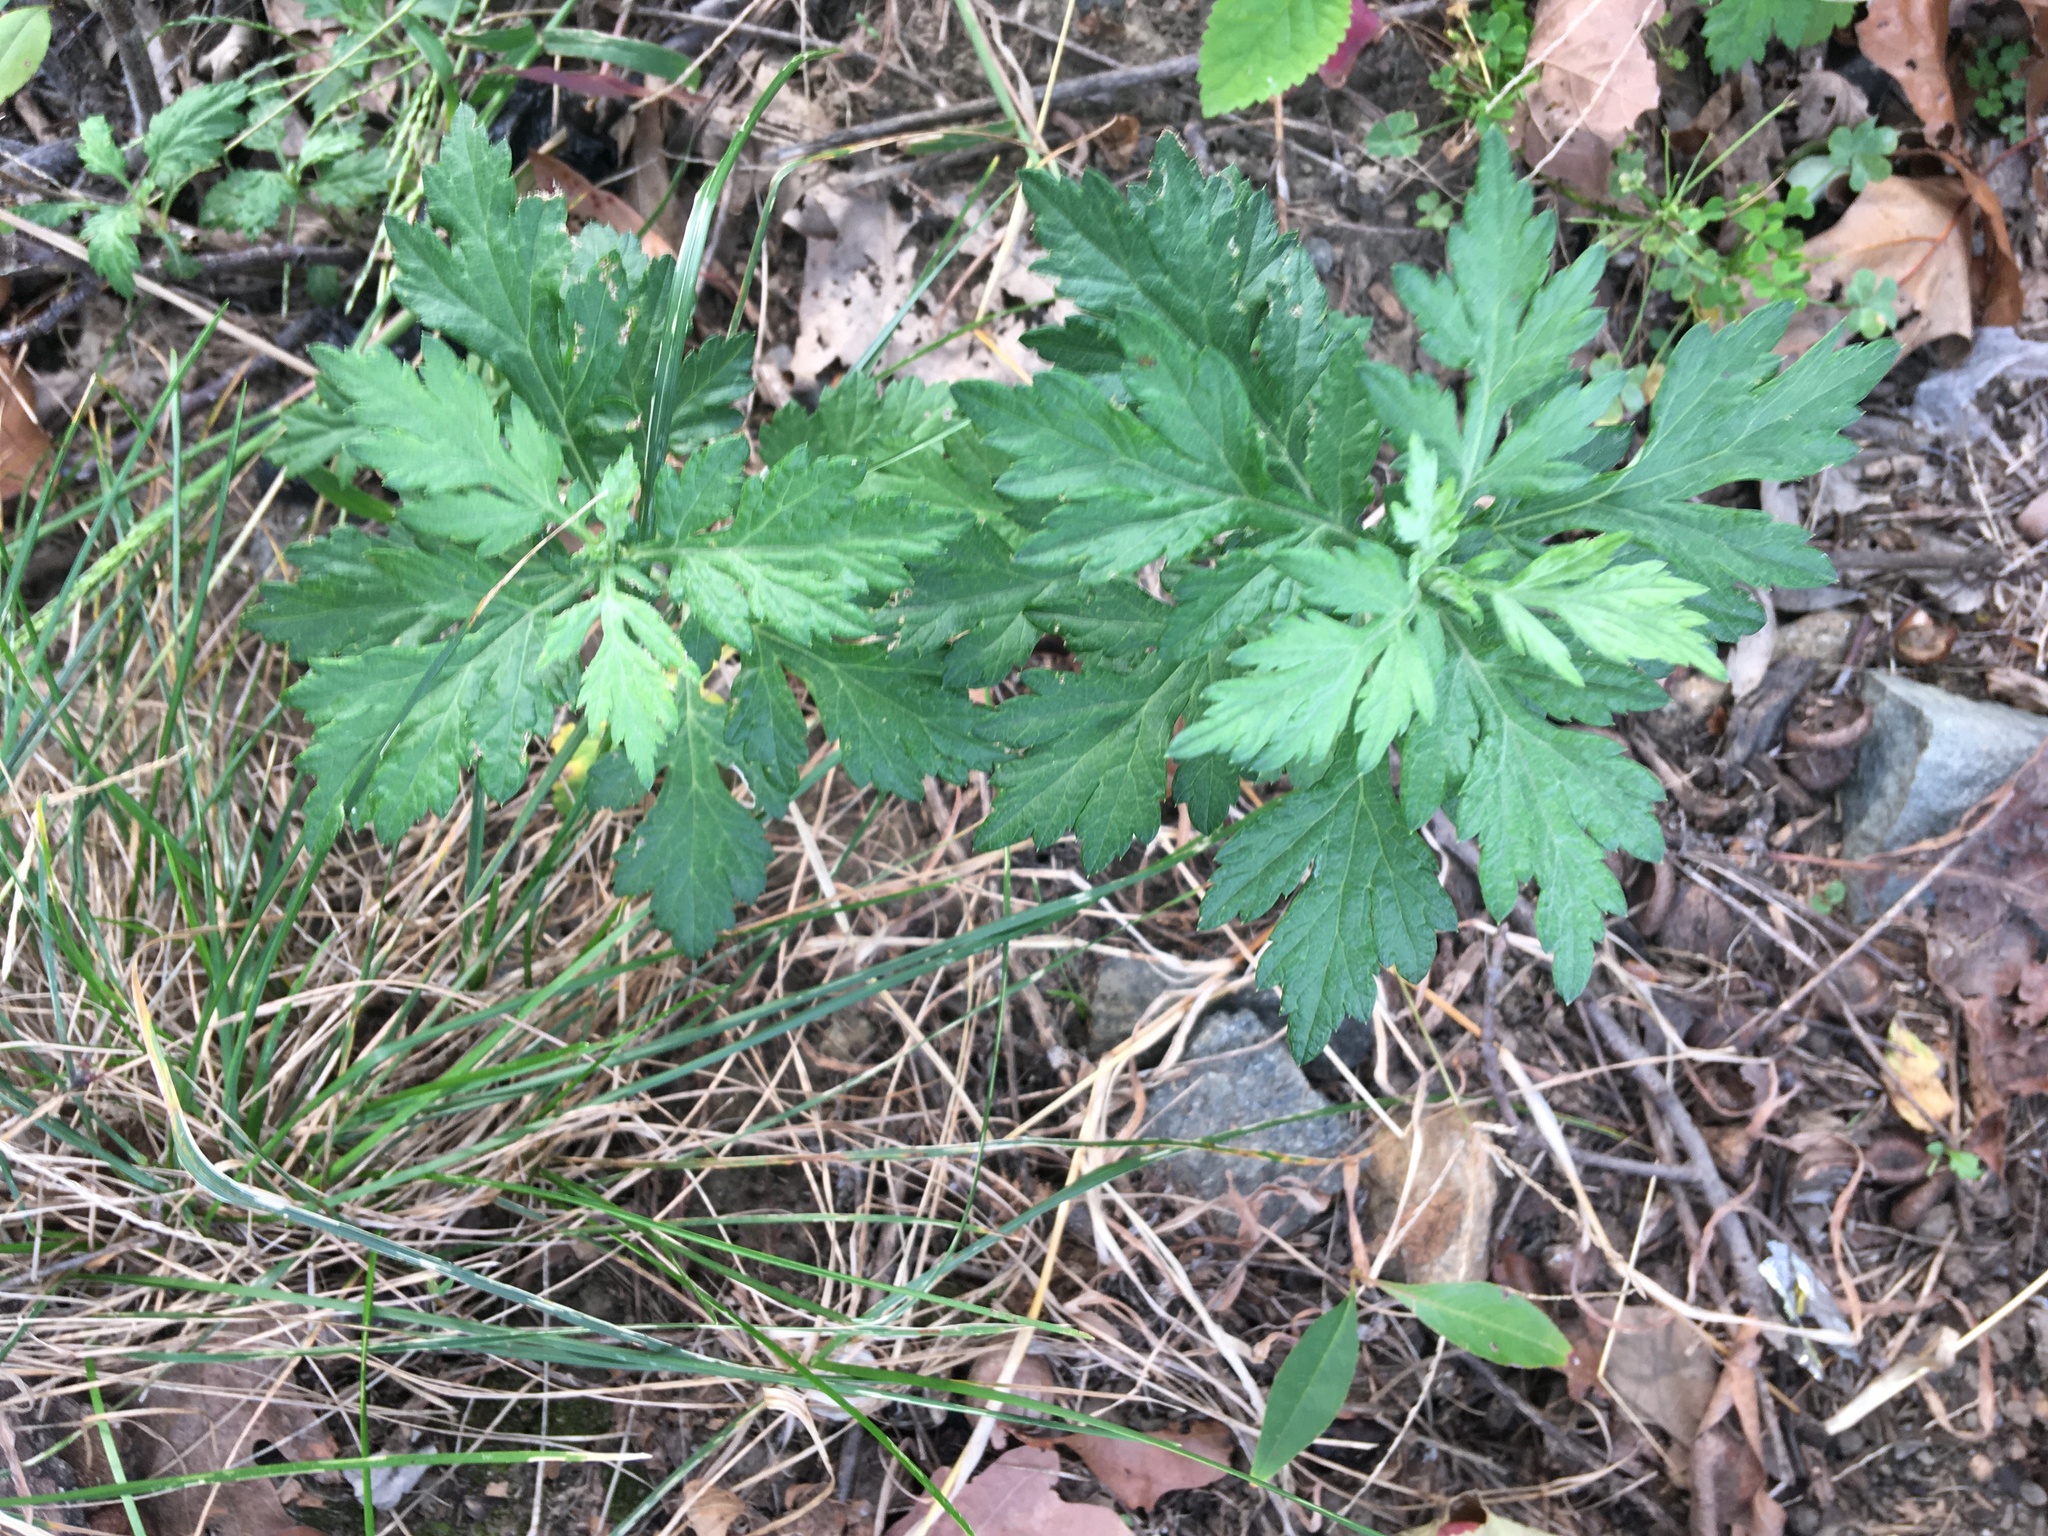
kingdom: Plantae
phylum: Tracheophyta
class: Magnoliopsida
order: Asterales
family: Asteraceae
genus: Artemisia
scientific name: Artemisia vulgaris
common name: Mugwort
